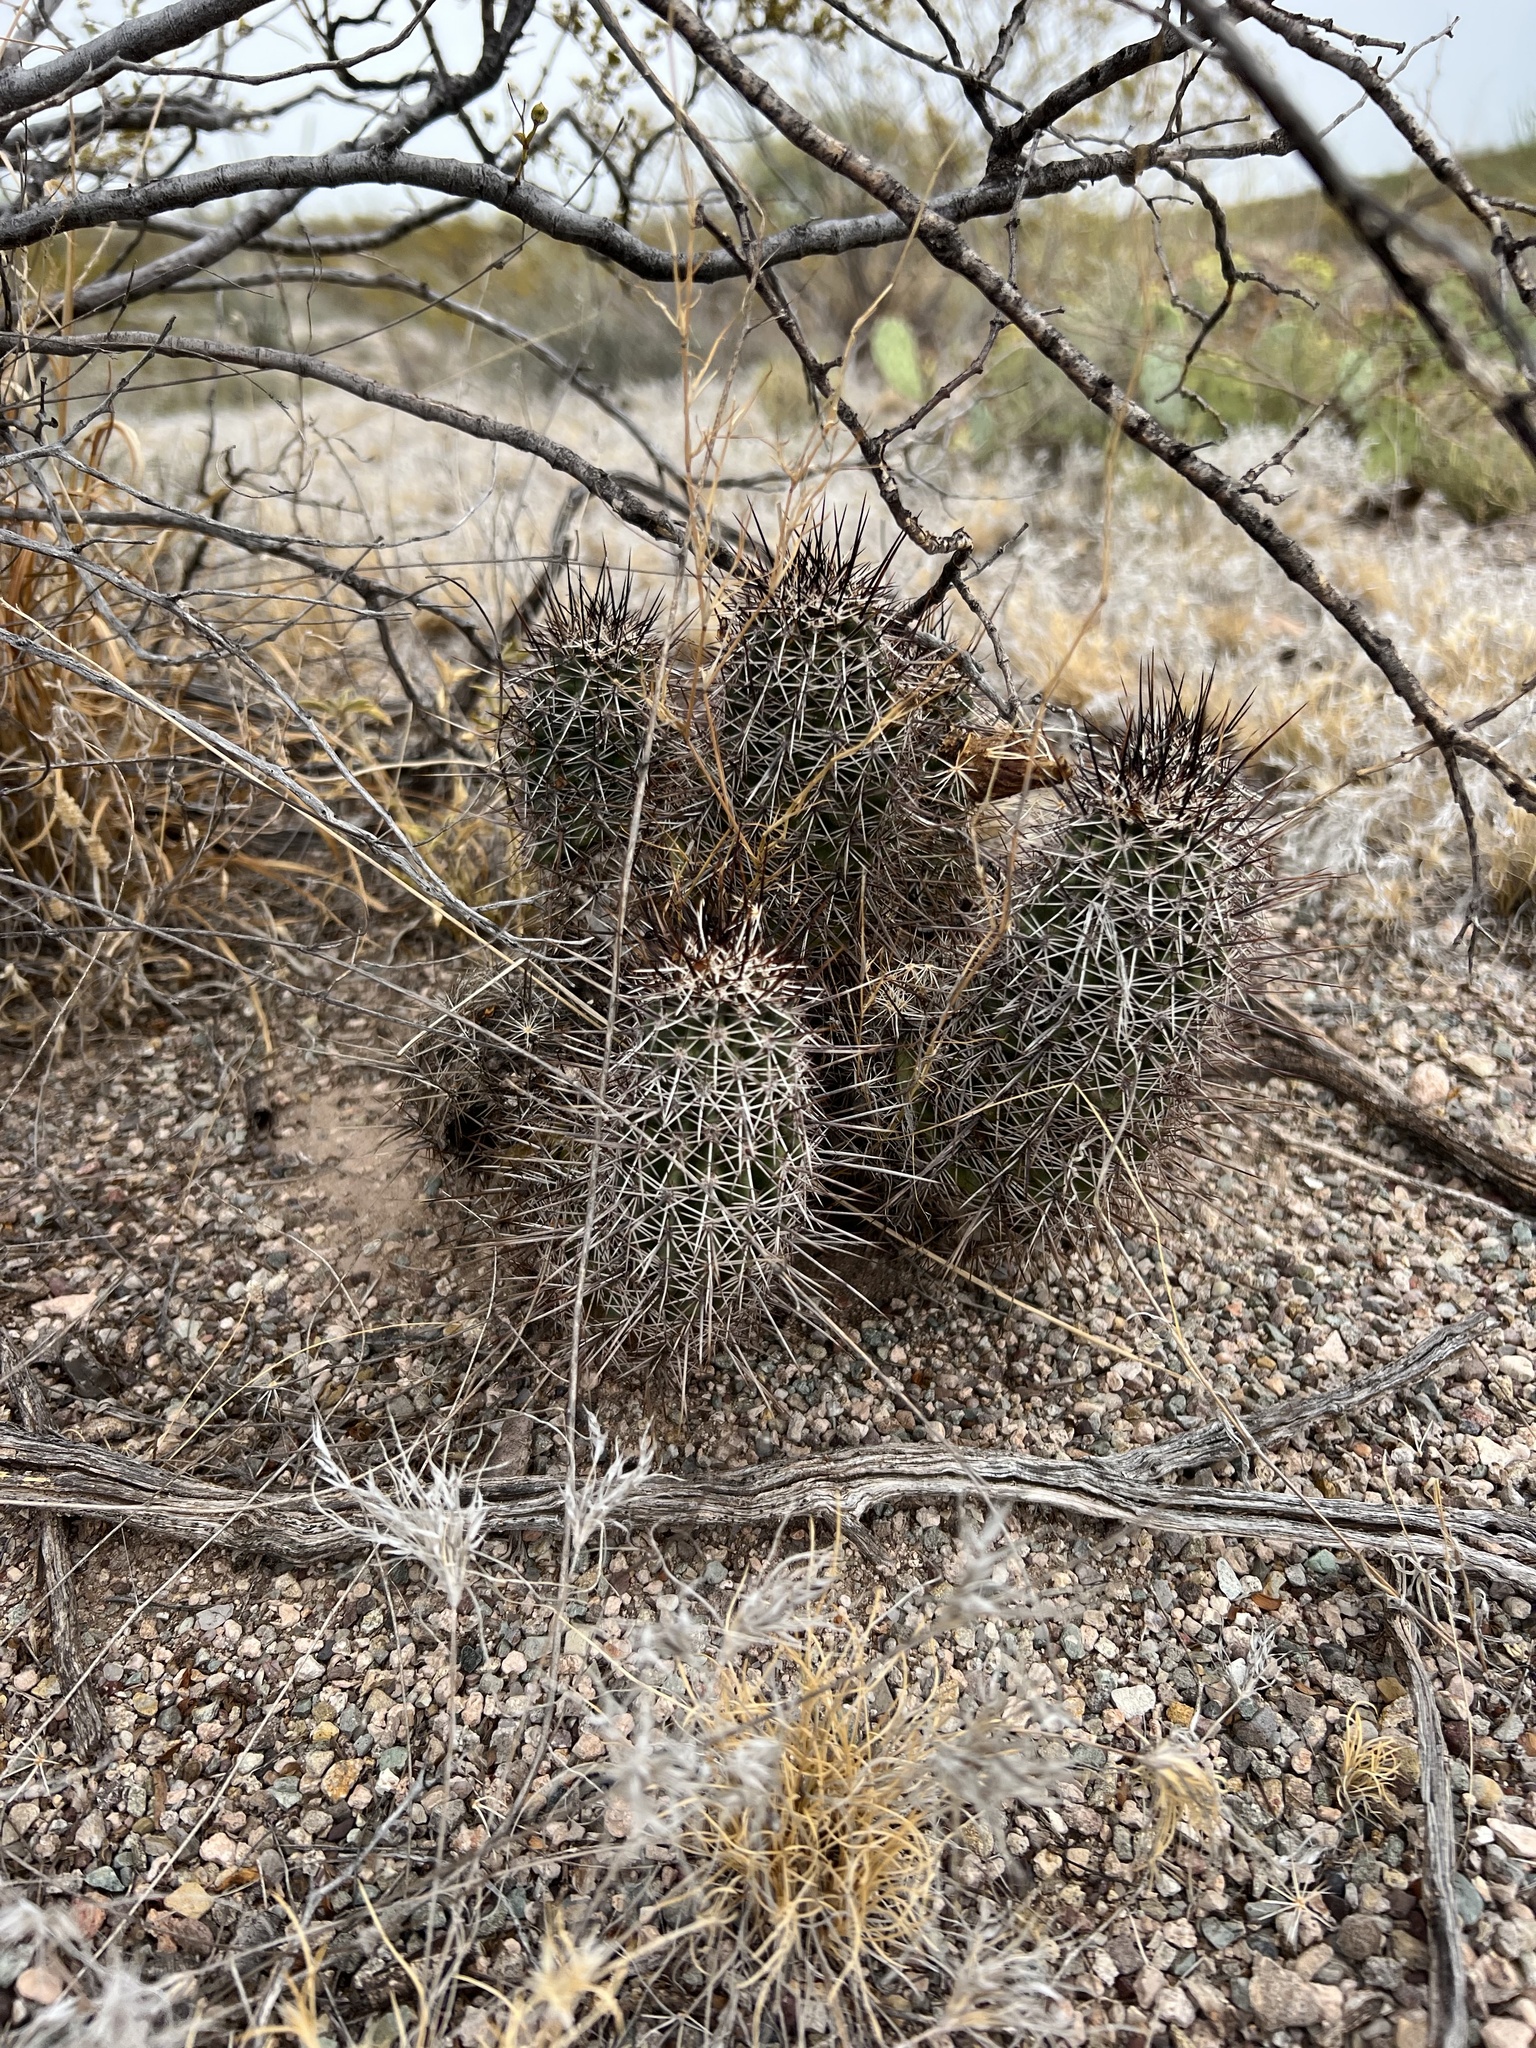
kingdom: Plantae
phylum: Tracheophyta
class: Magnoliopsida
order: Caryophyllales
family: Cactaceae
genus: Echinocereus
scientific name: Echinocereus fasciculatus
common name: Bundle hedgehog
